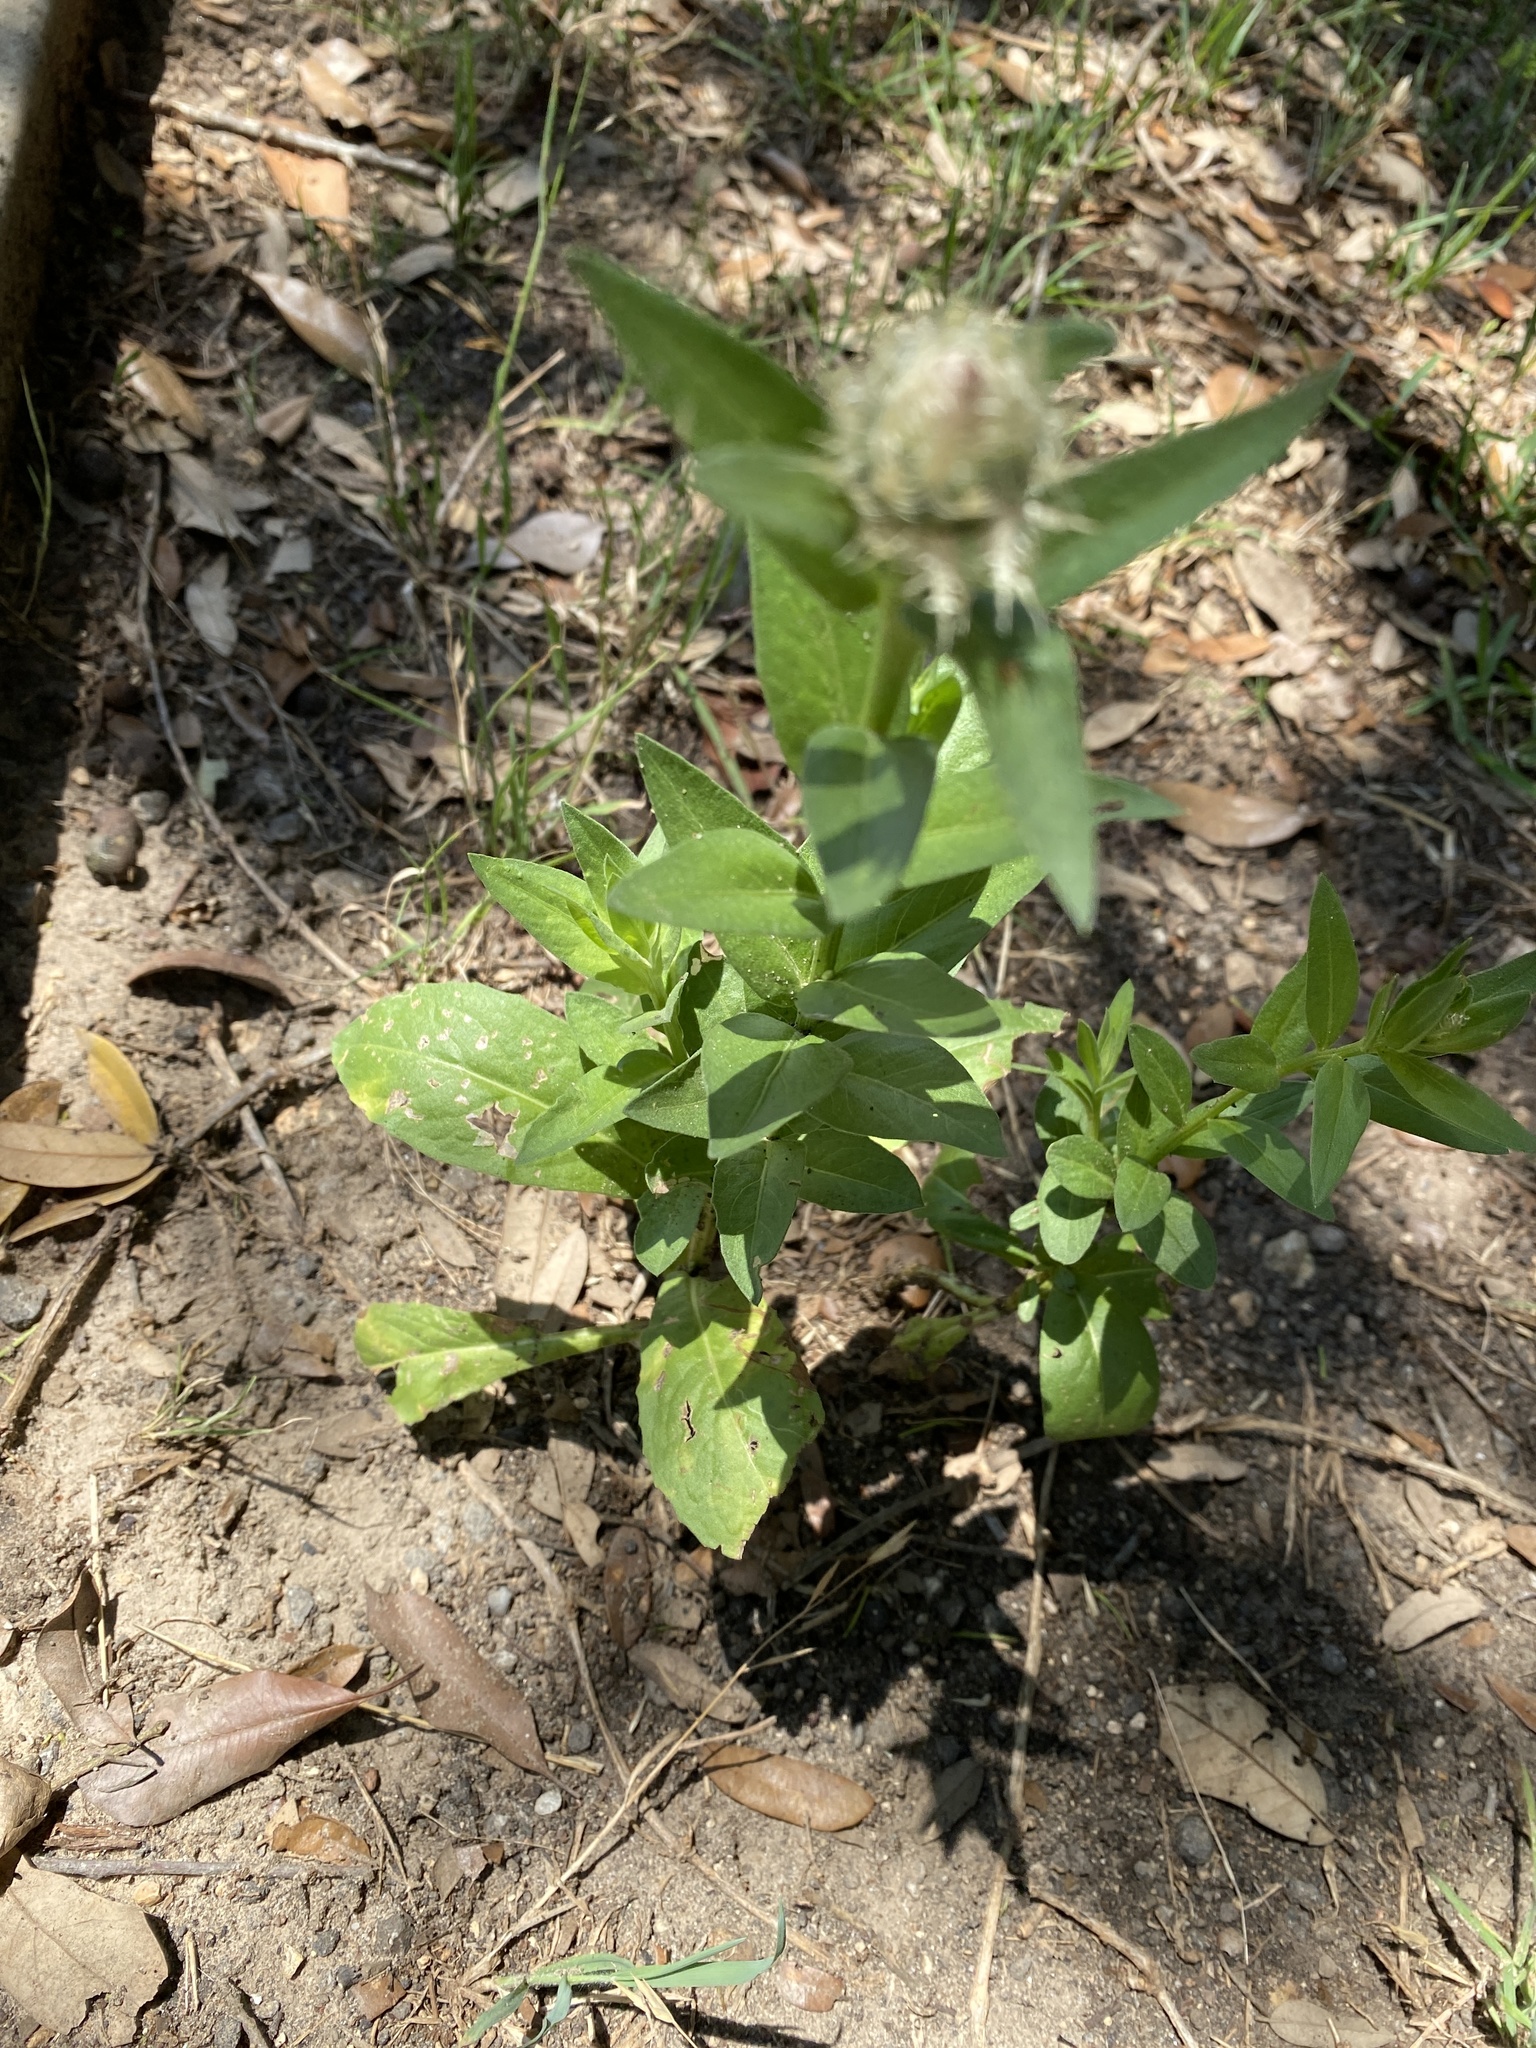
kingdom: Plantae
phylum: Tracheophyta
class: Magnoliopsida
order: Asterales
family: Asteraceae
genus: Plectocephalus
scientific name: Plectocephalus americanus
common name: American basket-flower
